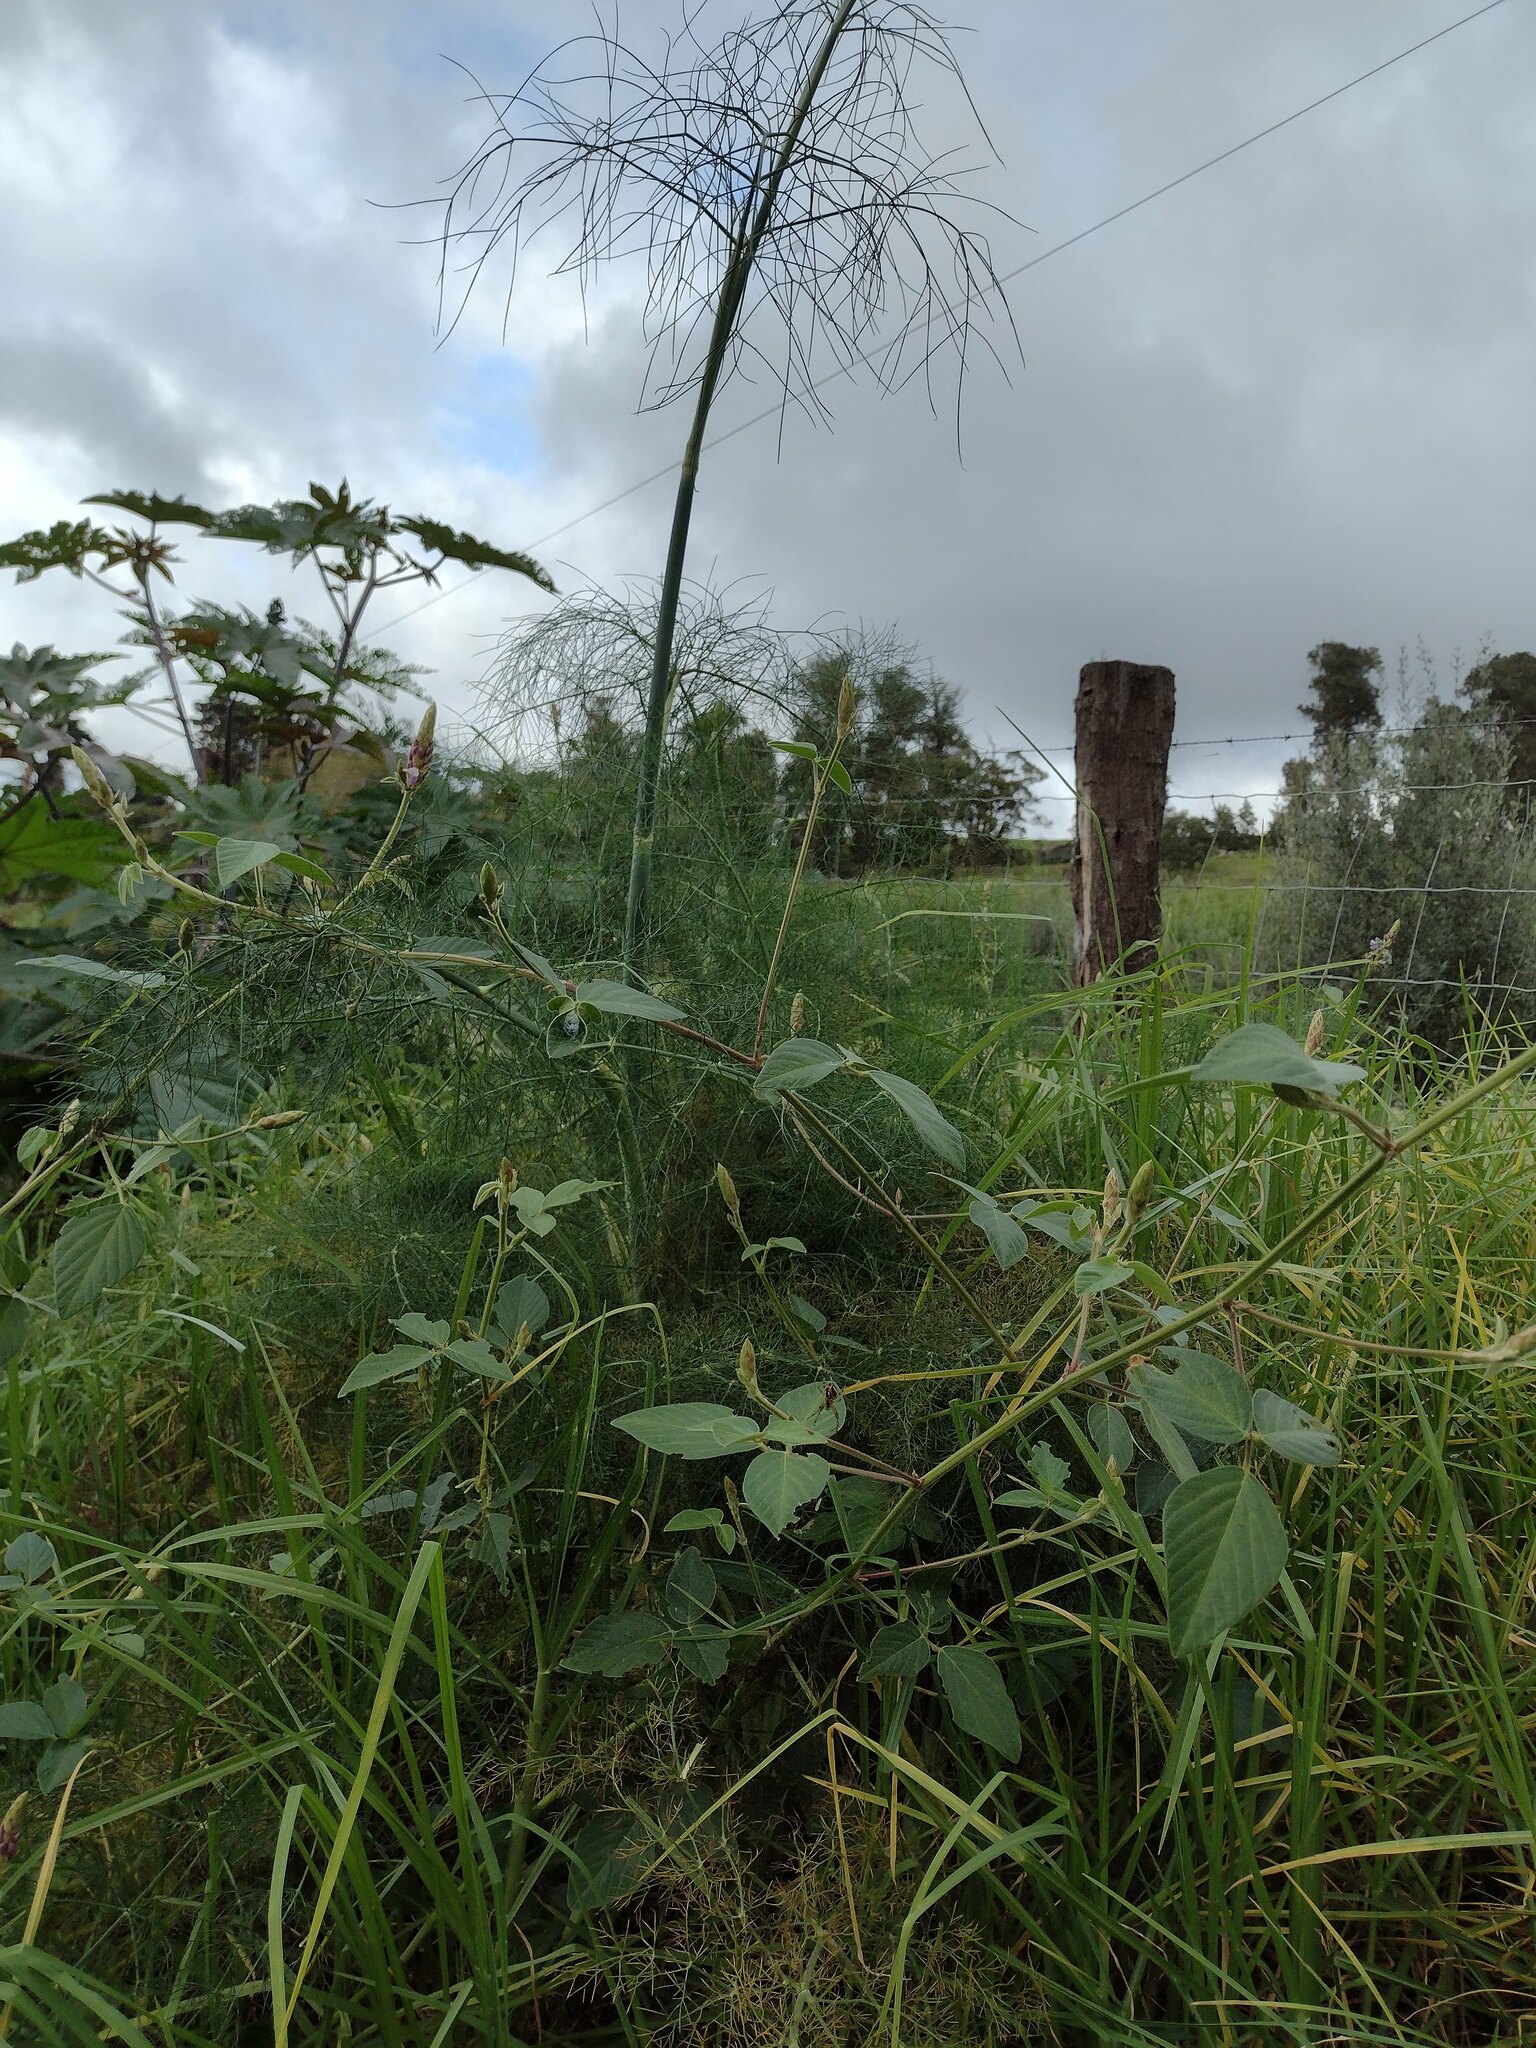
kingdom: Plantae
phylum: Tracheophyta
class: Magnoliopsida
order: Apiales
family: Apiaceae
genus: Foeniculum
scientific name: Foeniculum vulgare
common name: Fennel
